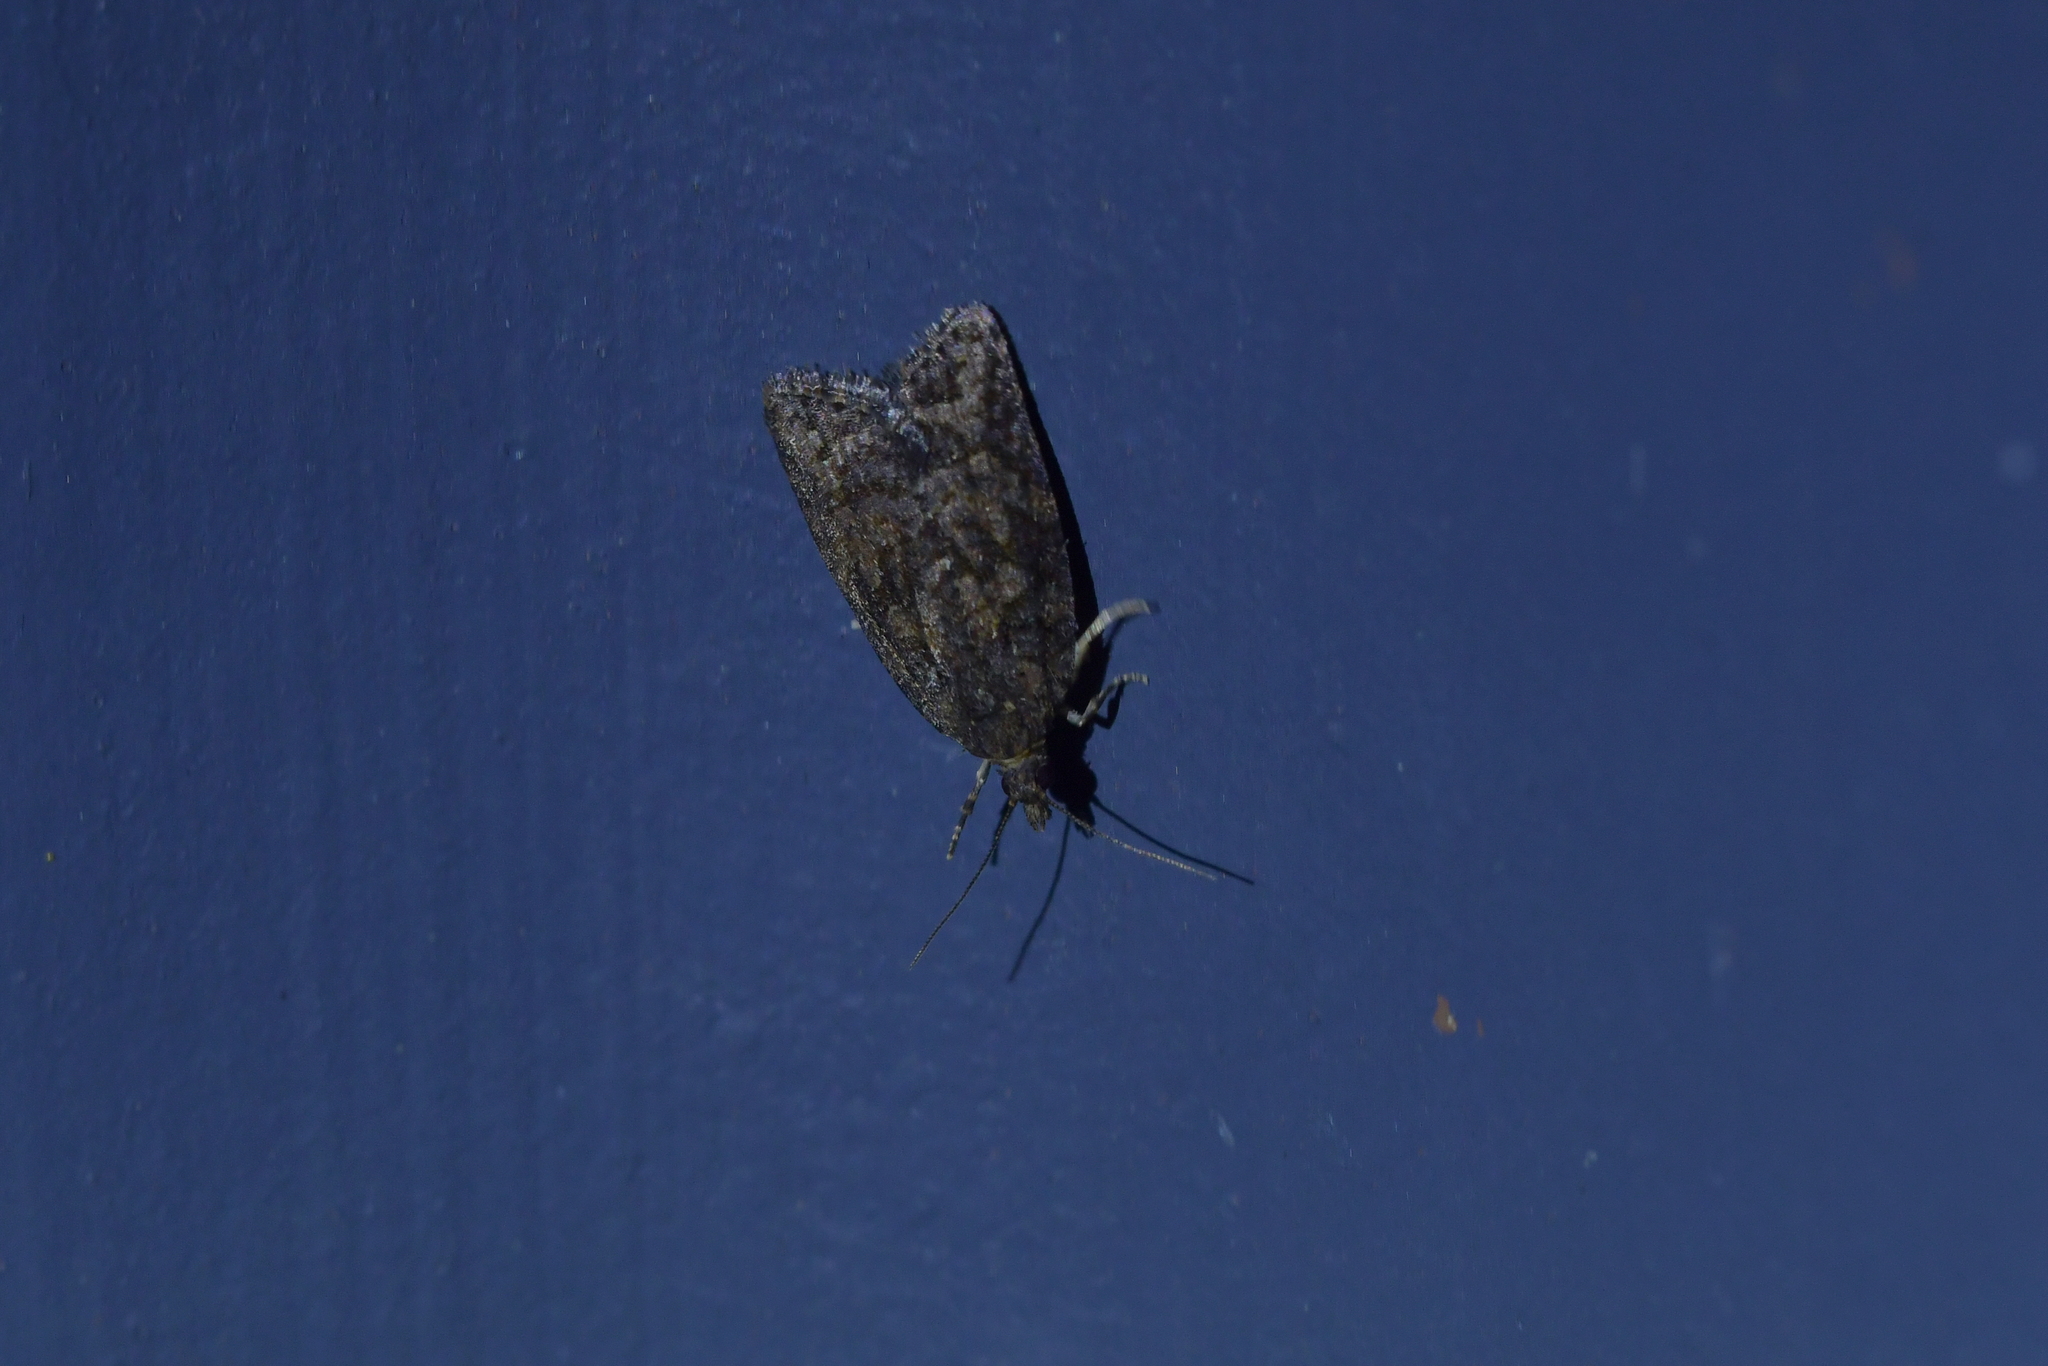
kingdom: Animalia
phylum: Arthropoda
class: Insecta
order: Lepidoptera
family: Tortricidae
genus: Capua
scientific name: Capua intractana
